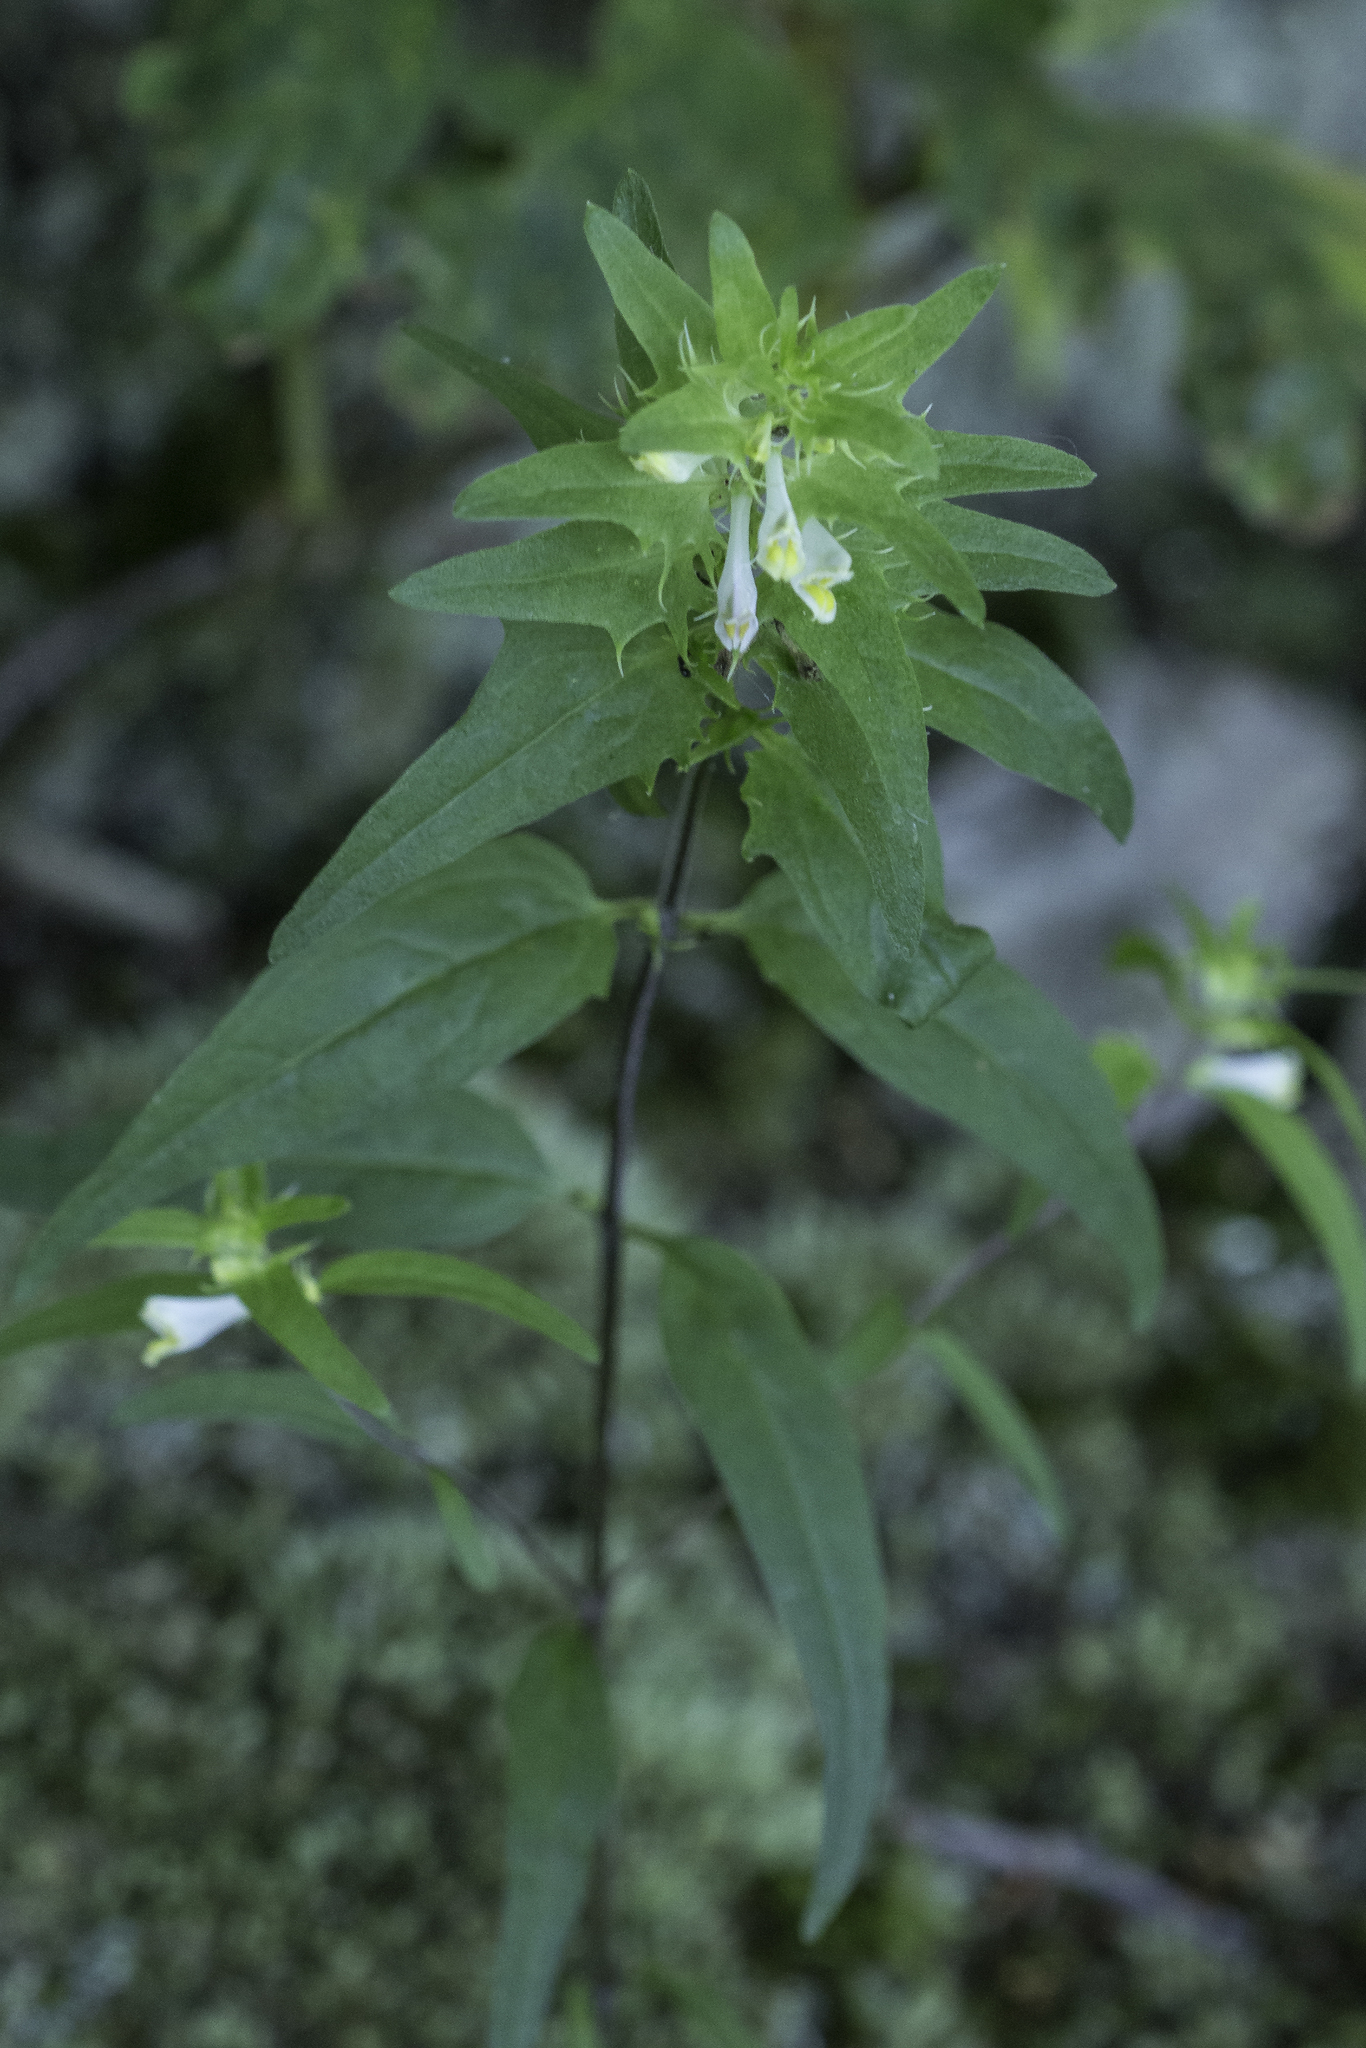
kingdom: Plantae
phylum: Tracheophyta
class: Magnoliopsida
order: Lamiales
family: Orobanchaceae
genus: Melampyrum
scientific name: Melampyrum lineare
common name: American cow-wheat
